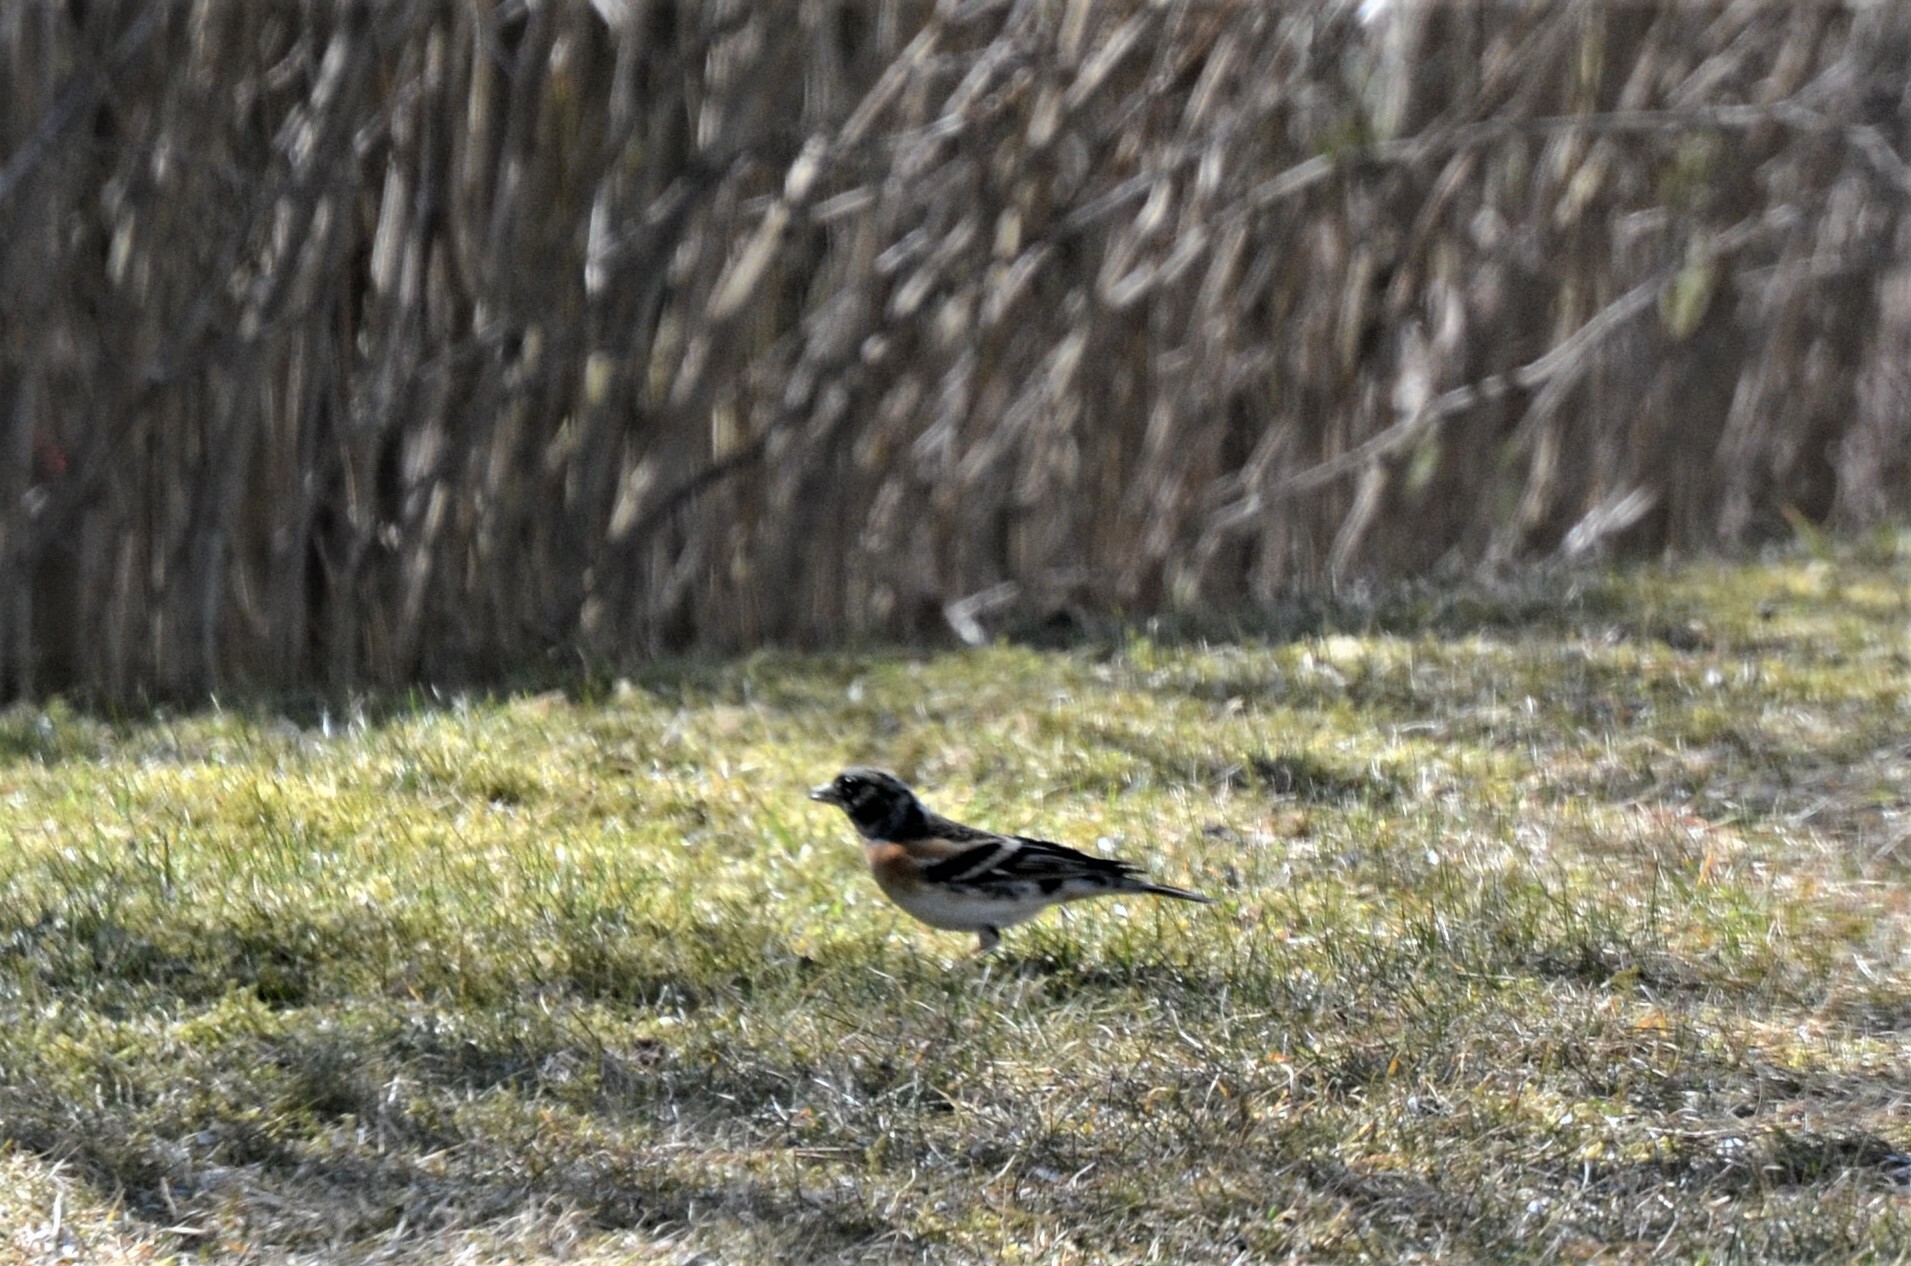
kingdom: Animalia
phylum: Chordata
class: Aves
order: Passeriformes
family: Fringillidae
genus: Fringilla
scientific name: Fringilla montifringilla
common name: Brambling
